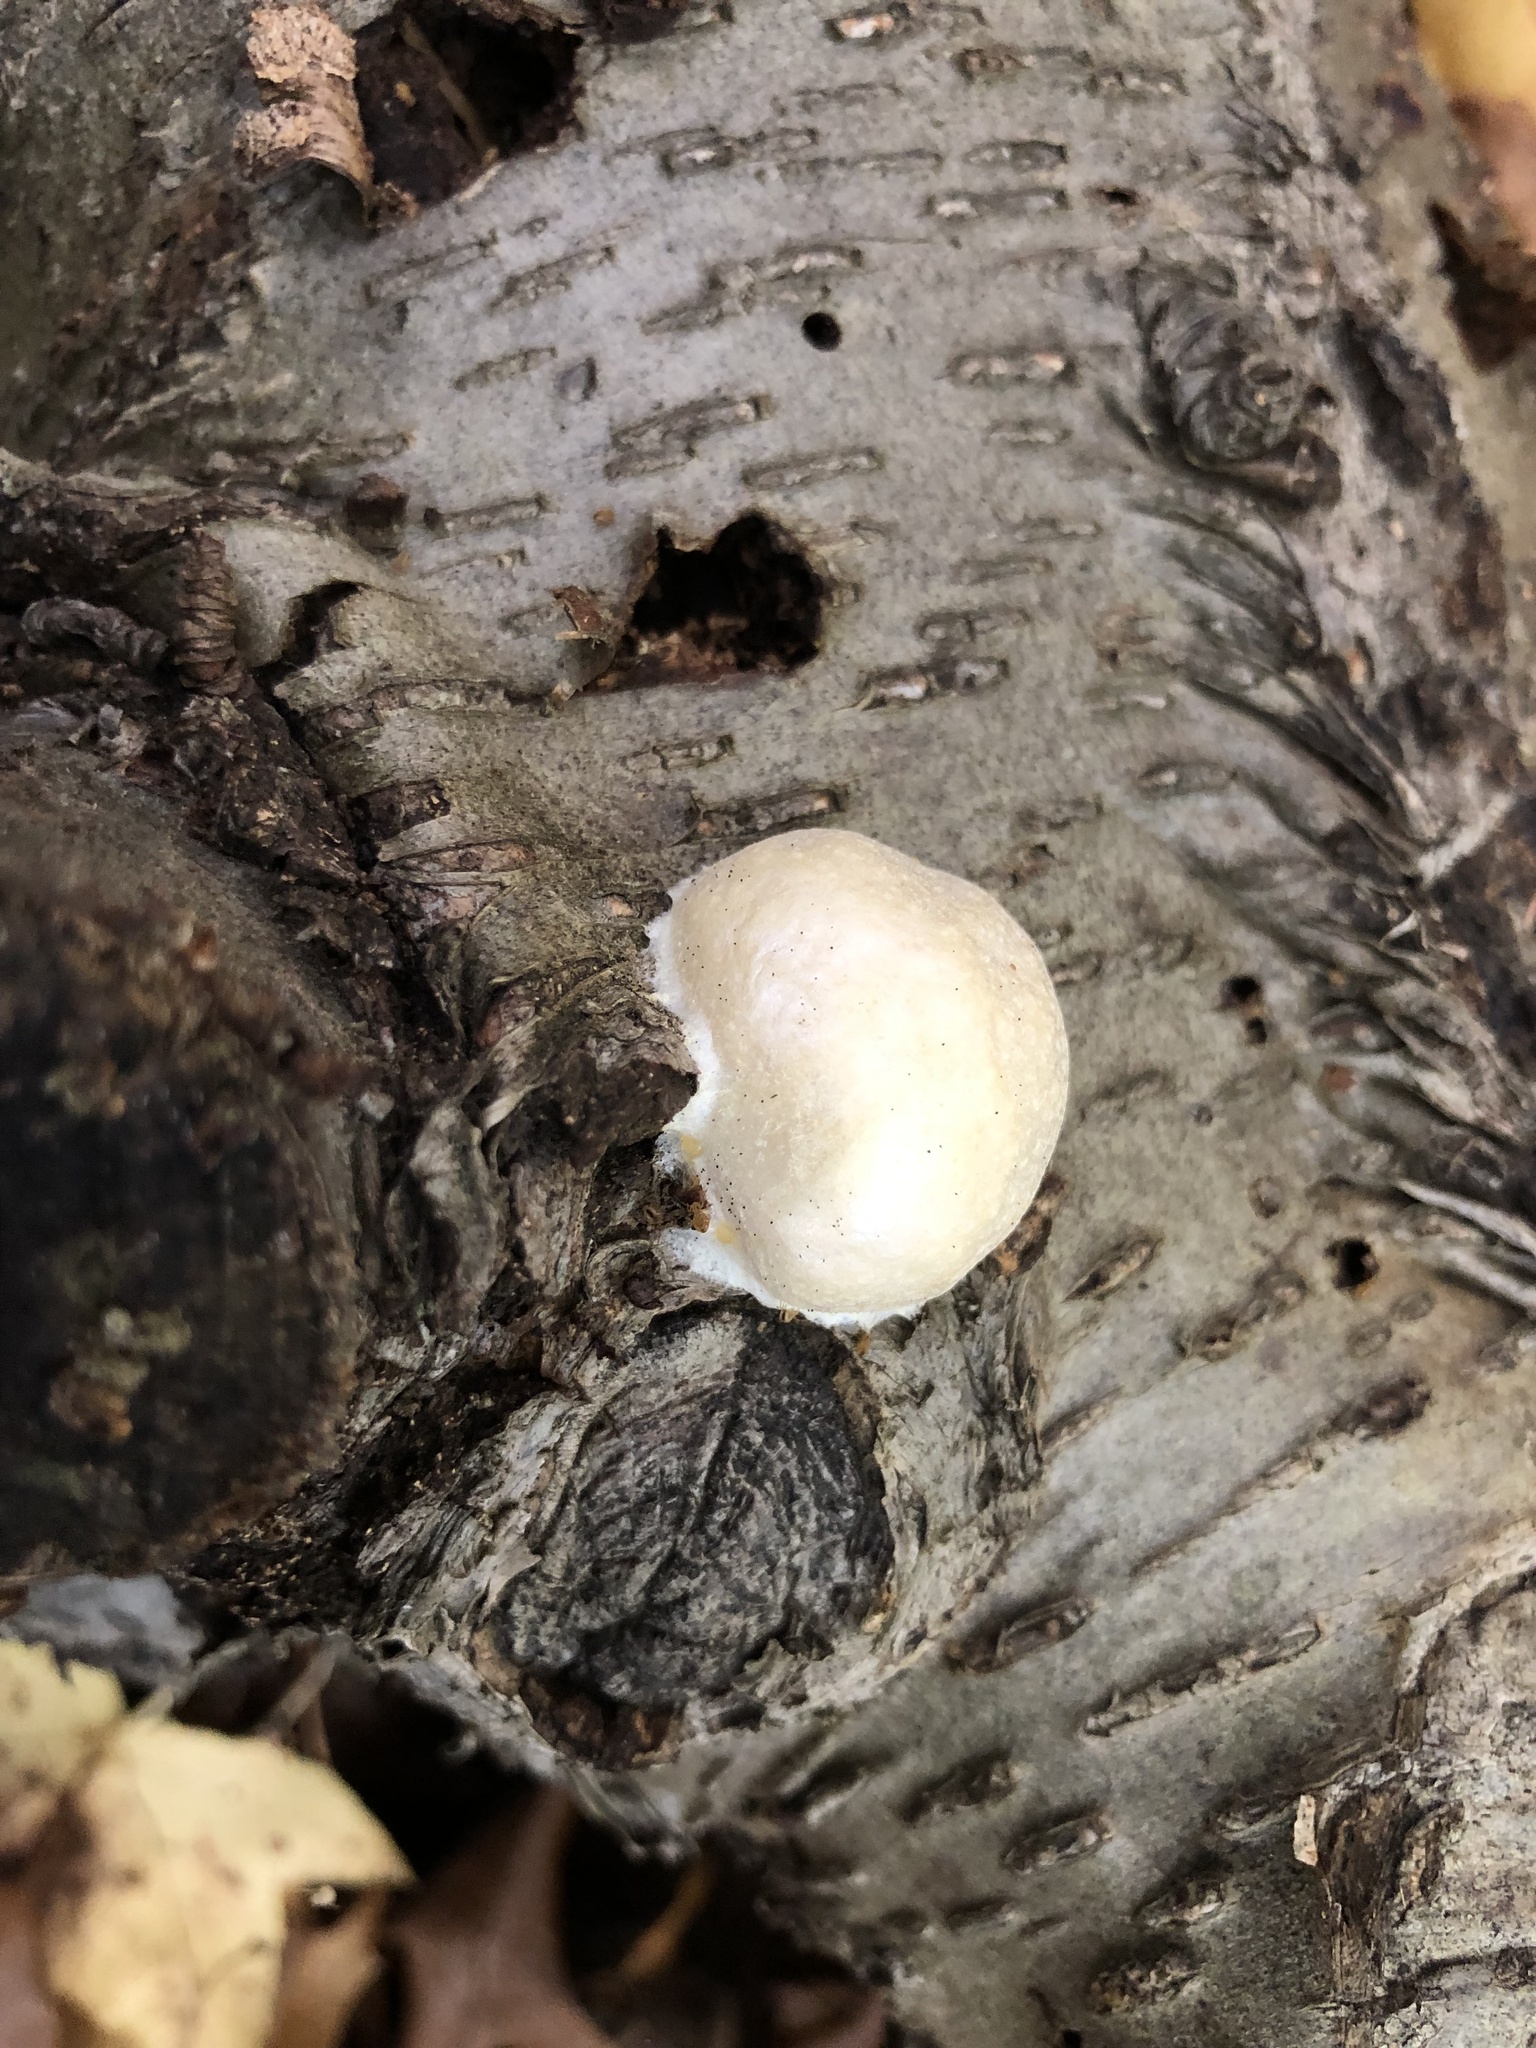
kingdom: Protozoa
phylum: Mycetozoa
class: Myxomycetes
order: Cribrariales
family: Tubiferaceae
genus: Reticularia
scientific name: Reticularia lycoperdon
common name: False puffball
